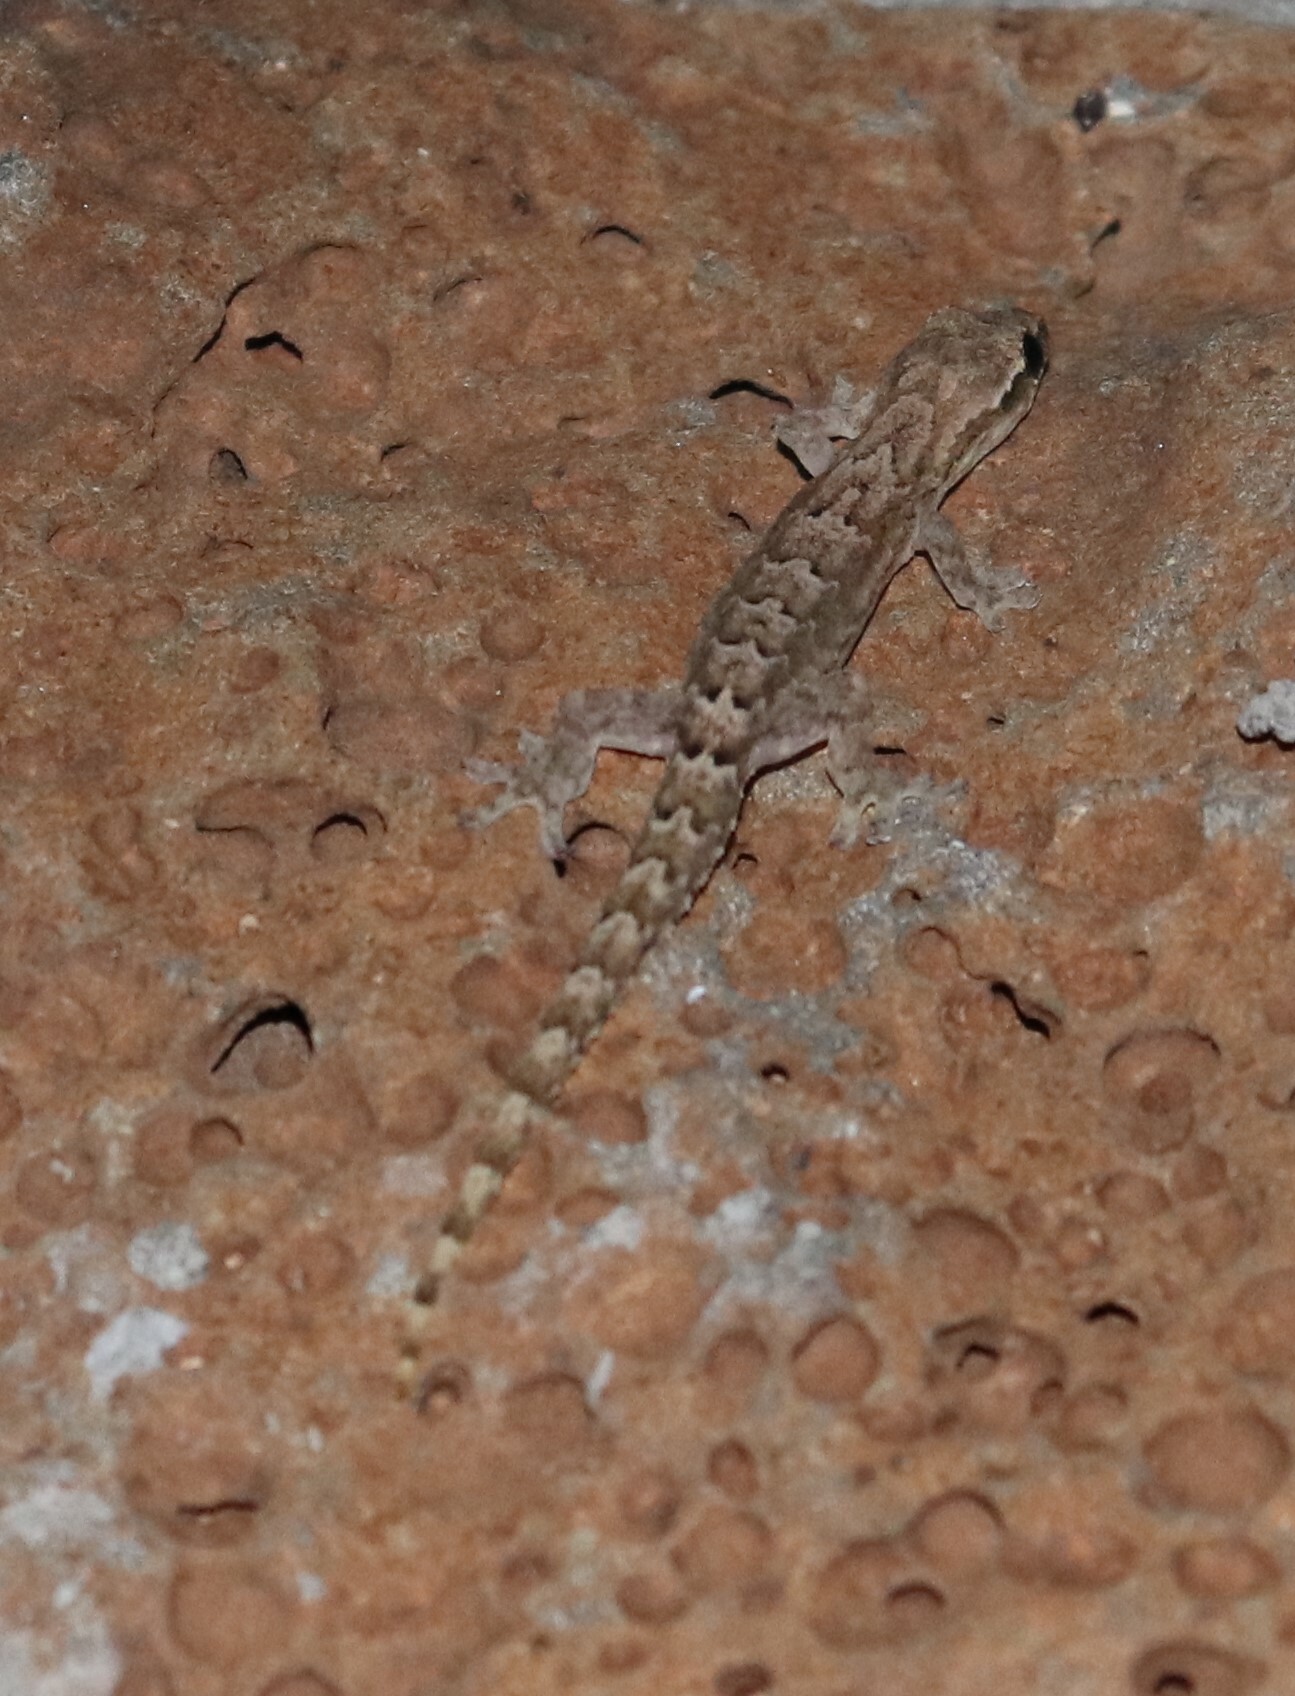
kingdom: Animalia
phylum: Chordata
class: Squamata
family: Gekkonidae
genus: Lepidodactylus
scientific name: Lepidodactylus lugubris
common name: Mourning gecko
